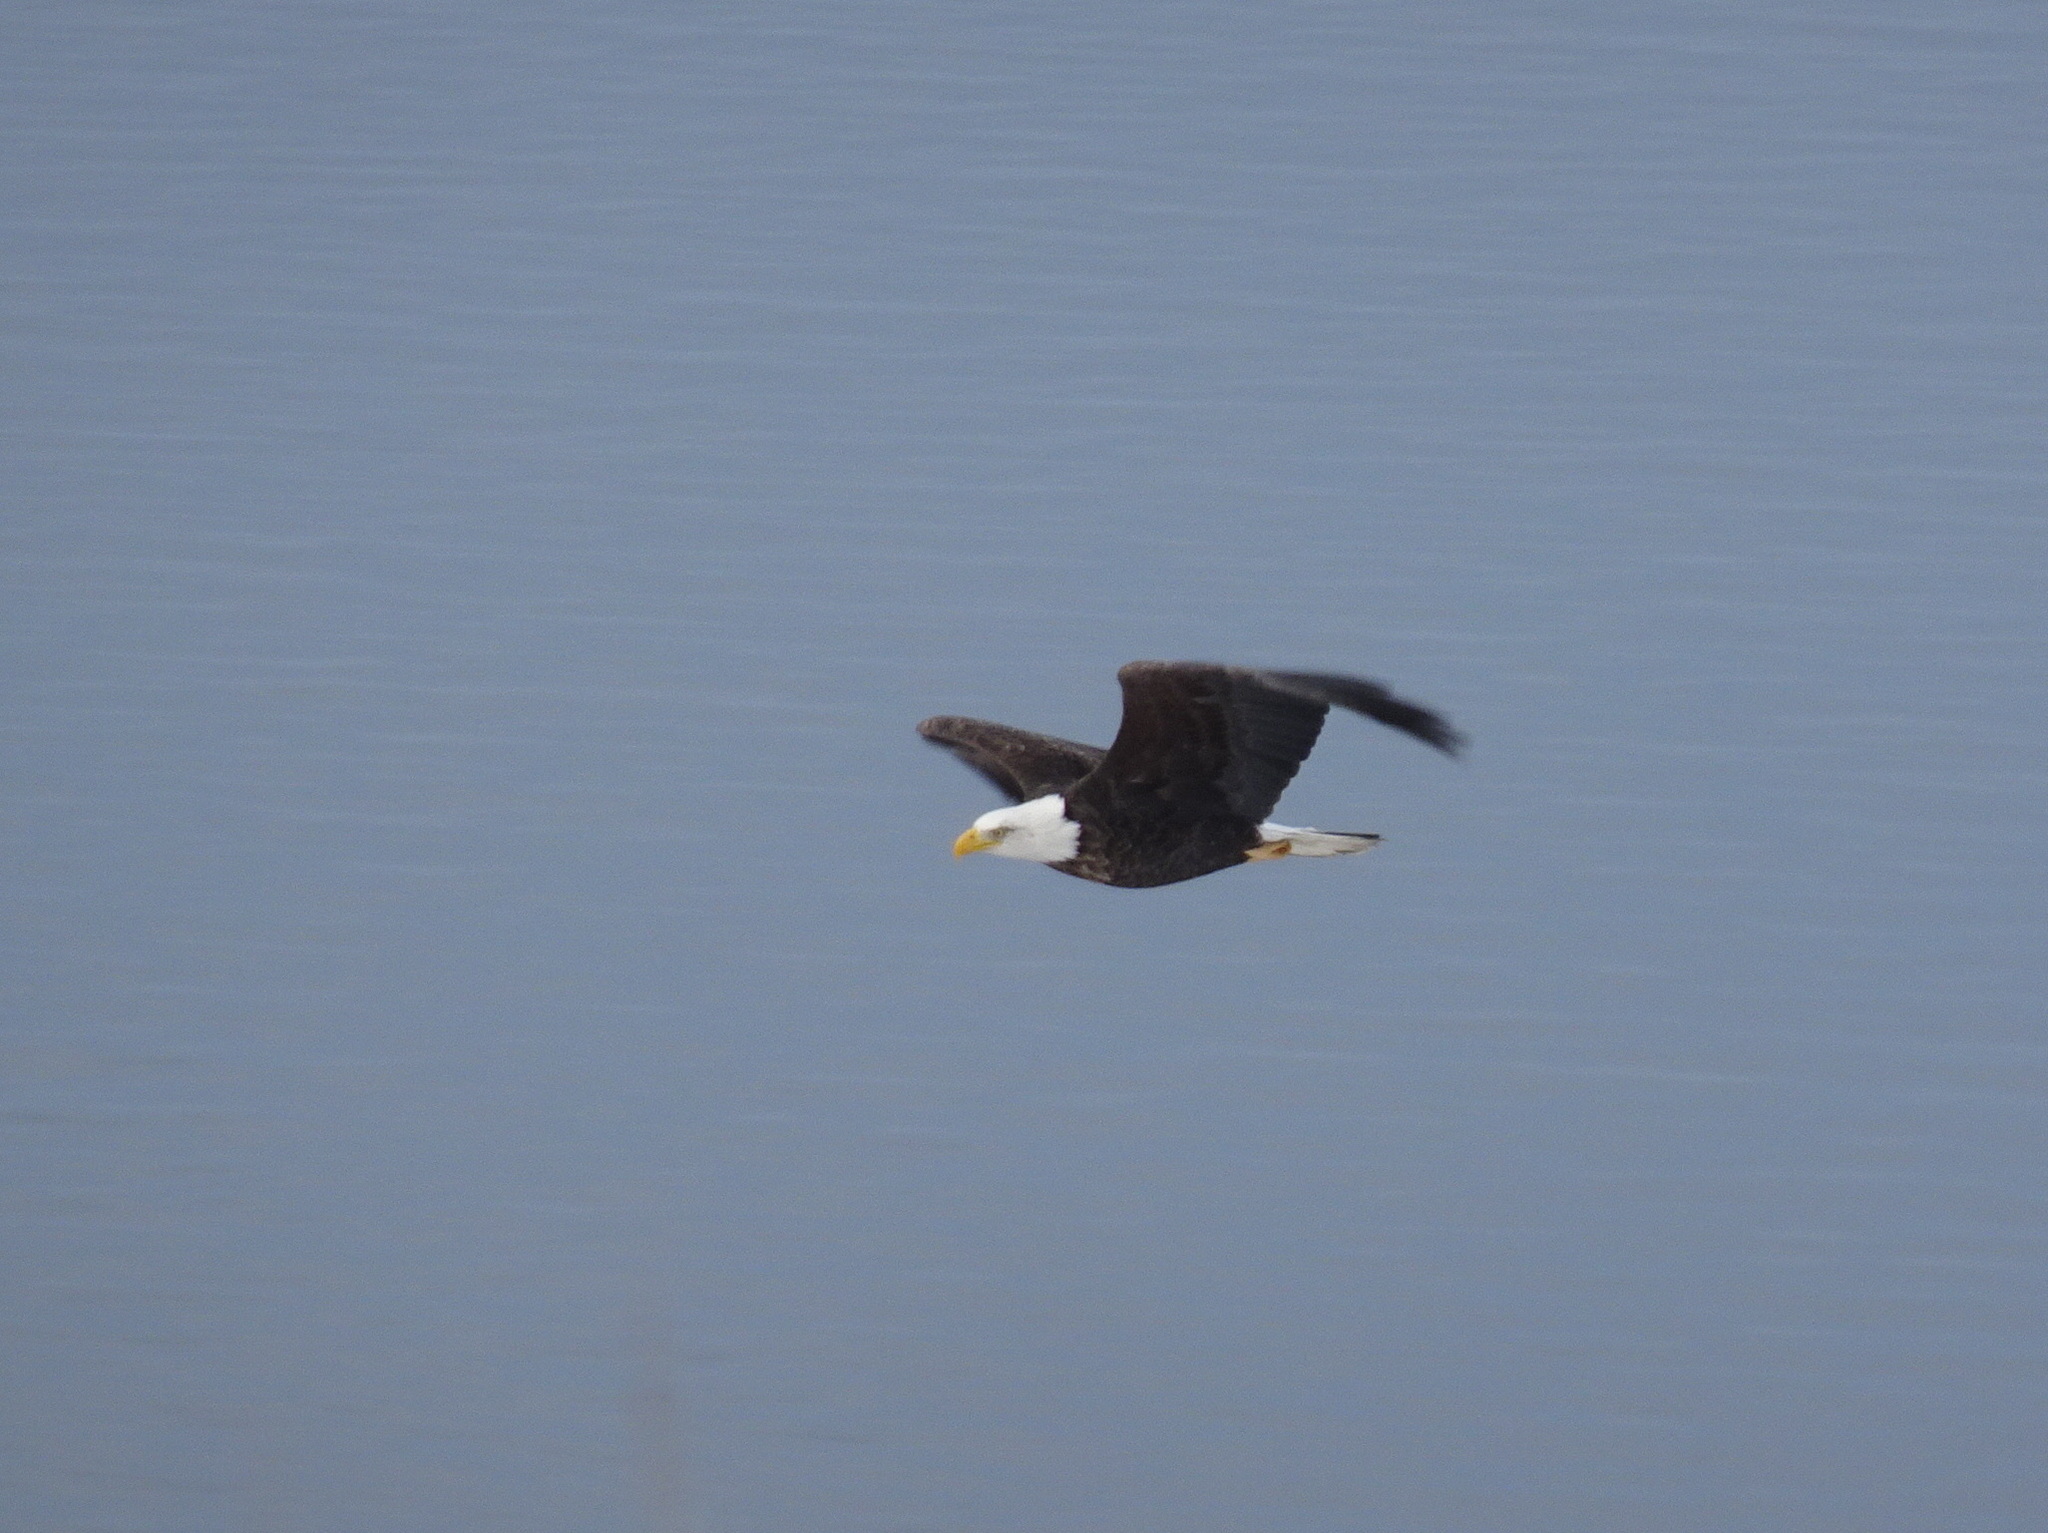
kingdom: Animalia
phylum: Chordata
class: Aves
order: Accipitriformes
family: Accipitridae
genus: Haliaeetus
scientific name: Haliaeetus leucocephalus
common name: Bald eagle
